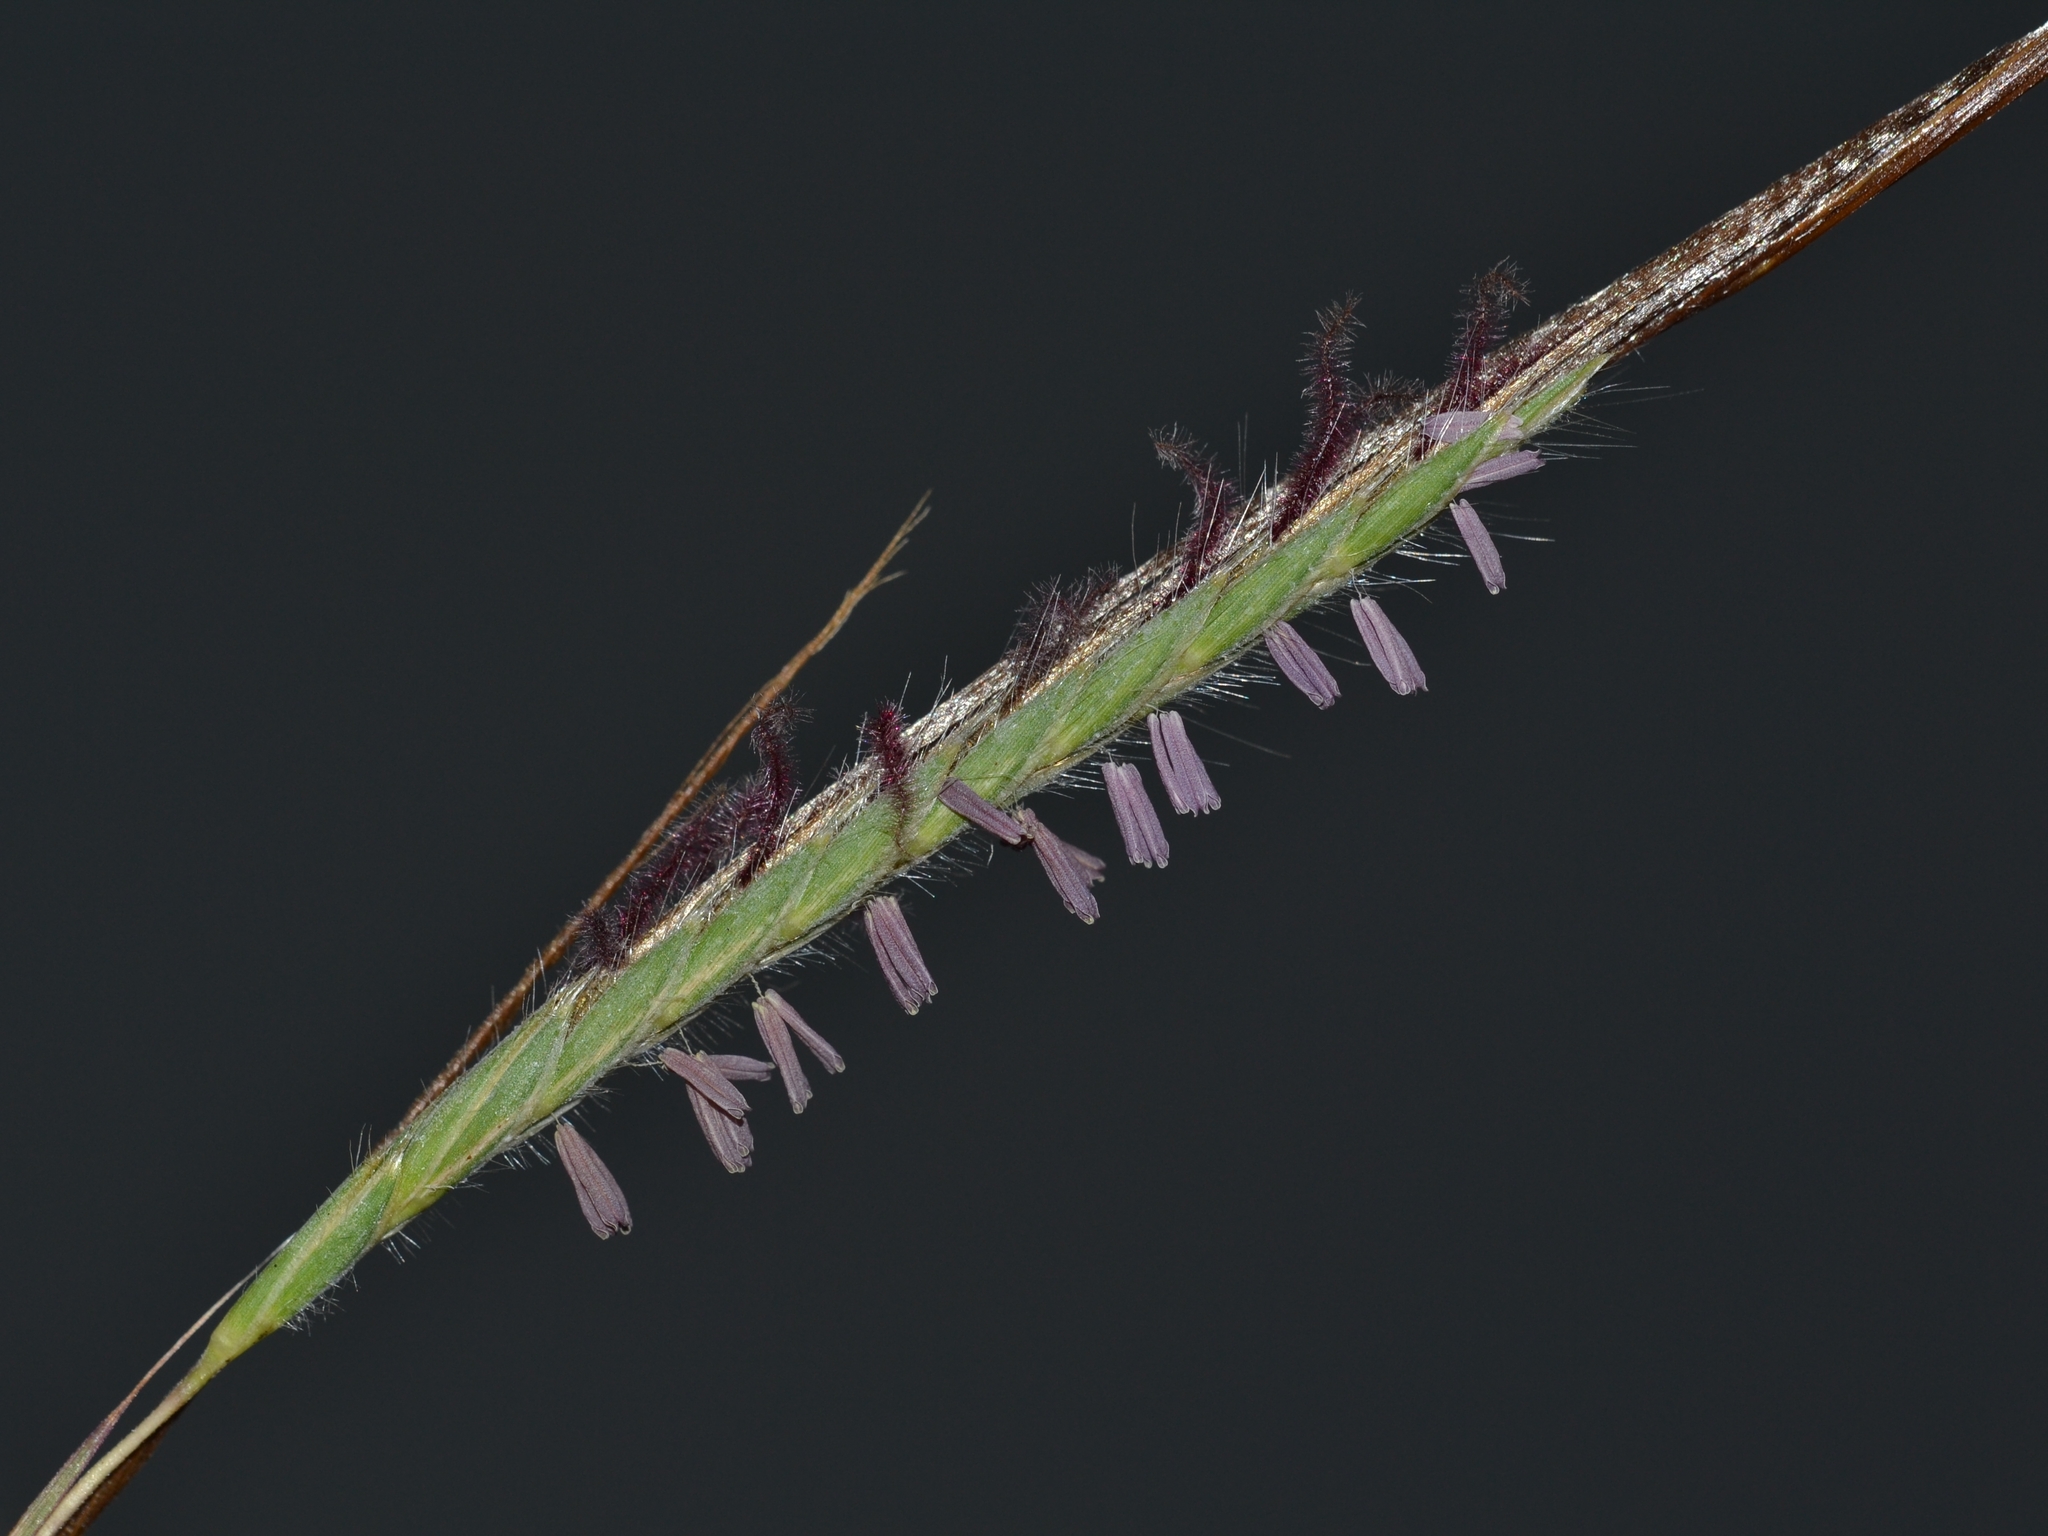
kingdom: Plantae
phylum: Tracheophyta
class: Liliopsida
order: Poales
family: Poaceae
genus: Heteropogon
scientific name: Heteropogon contortus
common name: Tanglehead
